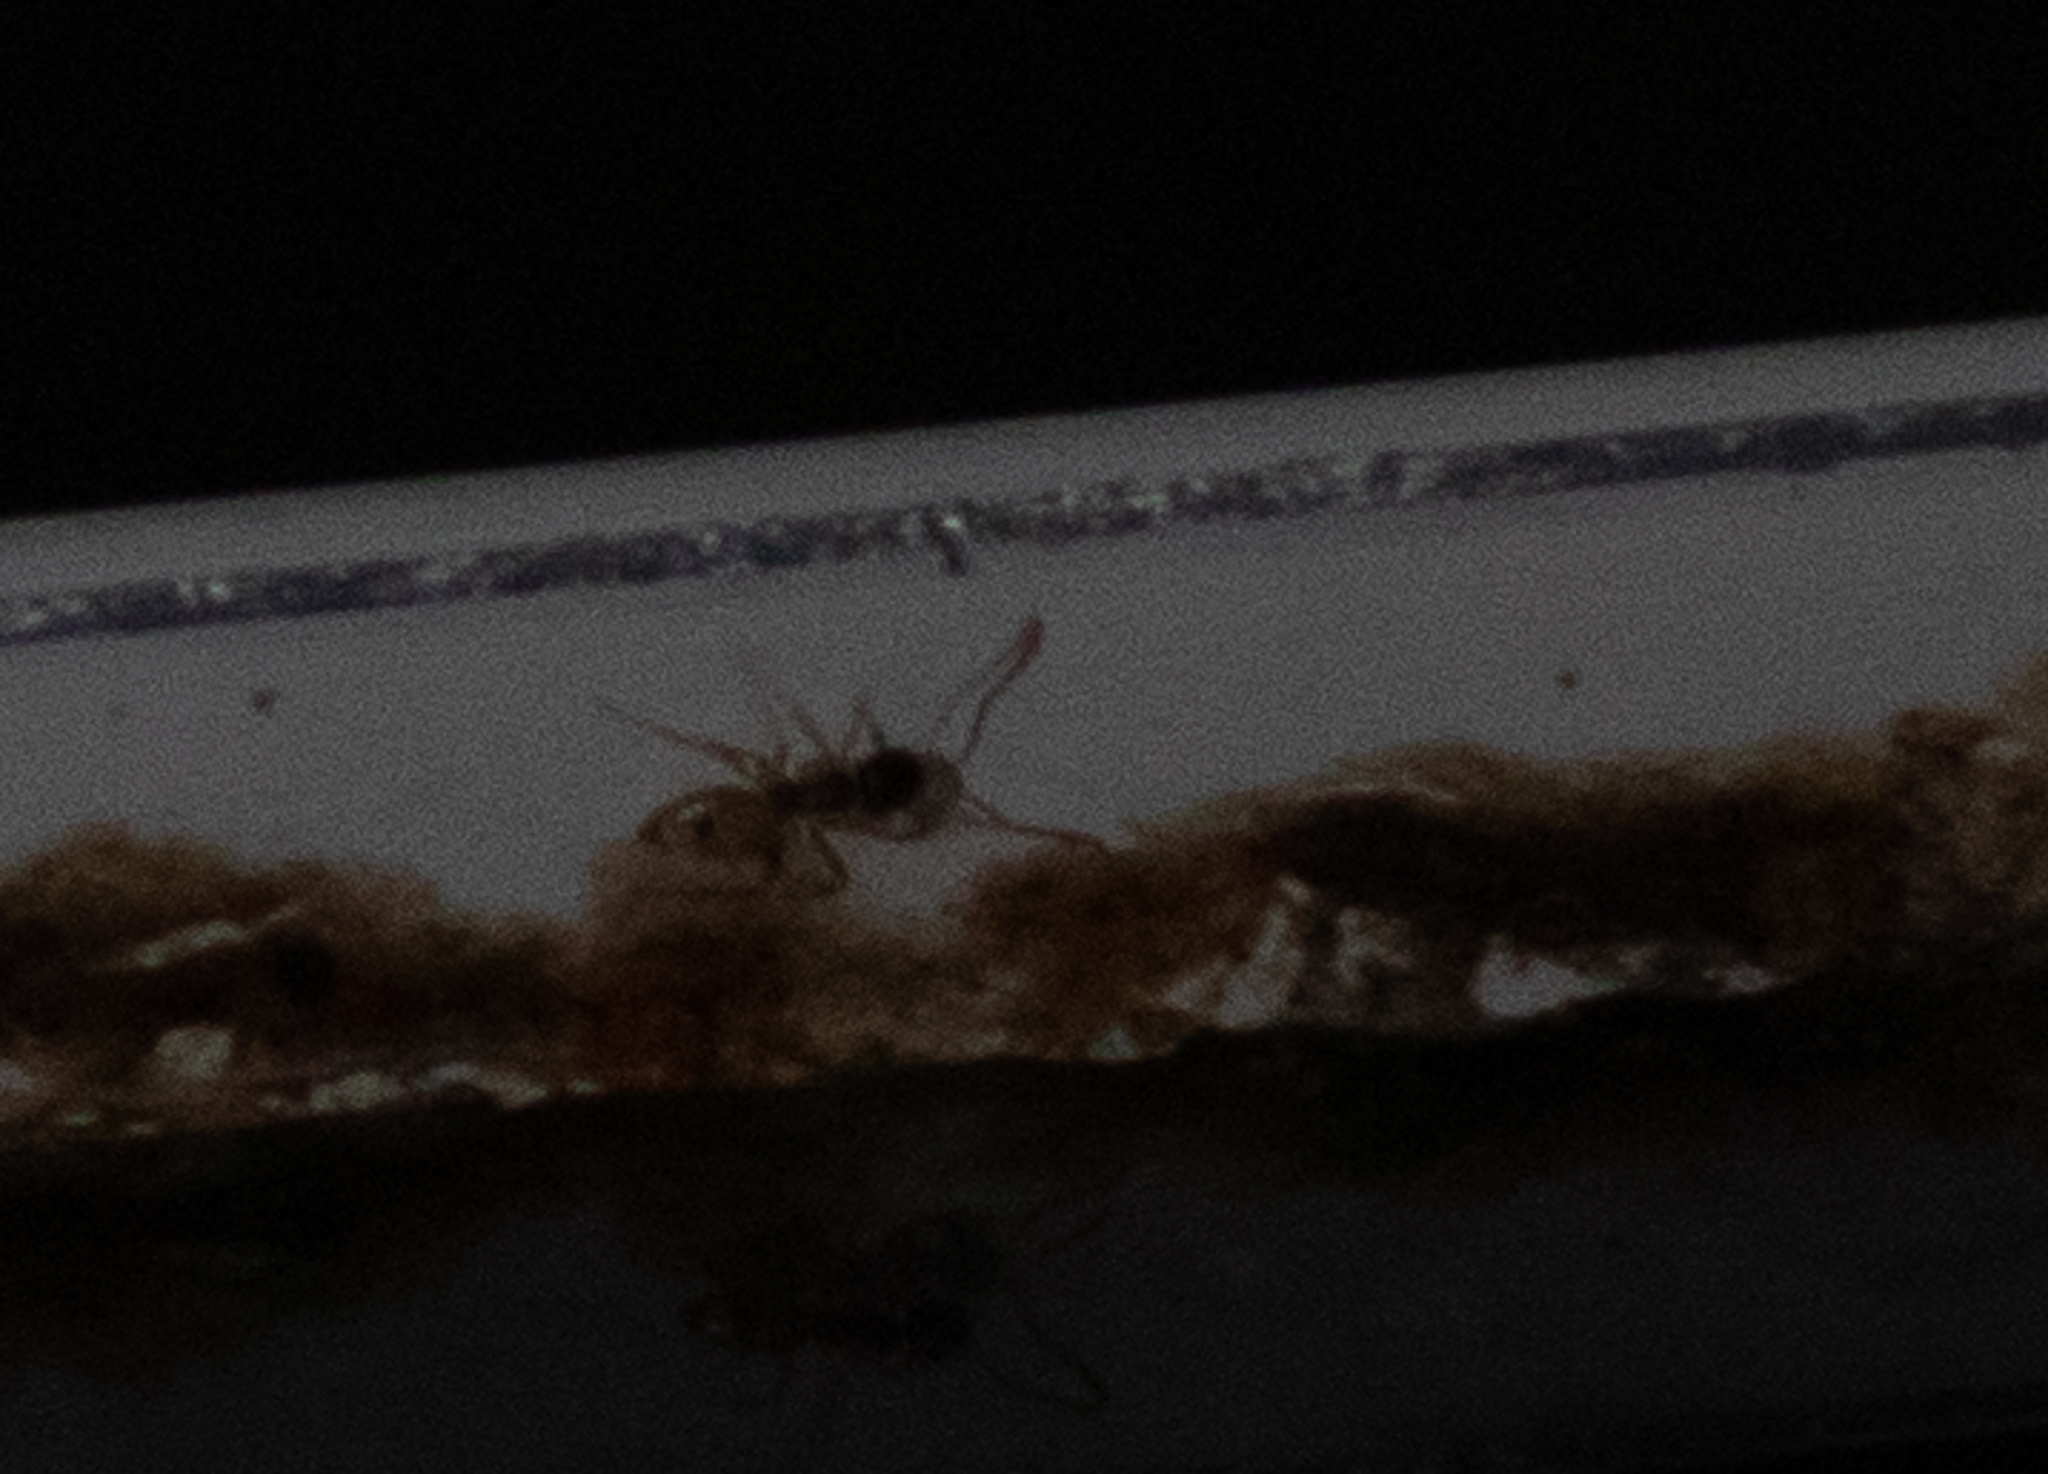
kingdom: Animalia
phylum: Arthropoda
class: Insecta
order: Hymenoptera
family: Formicidae
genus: Tapinoma
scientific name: Tapinoma melanocephalum
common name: Ghost ant
